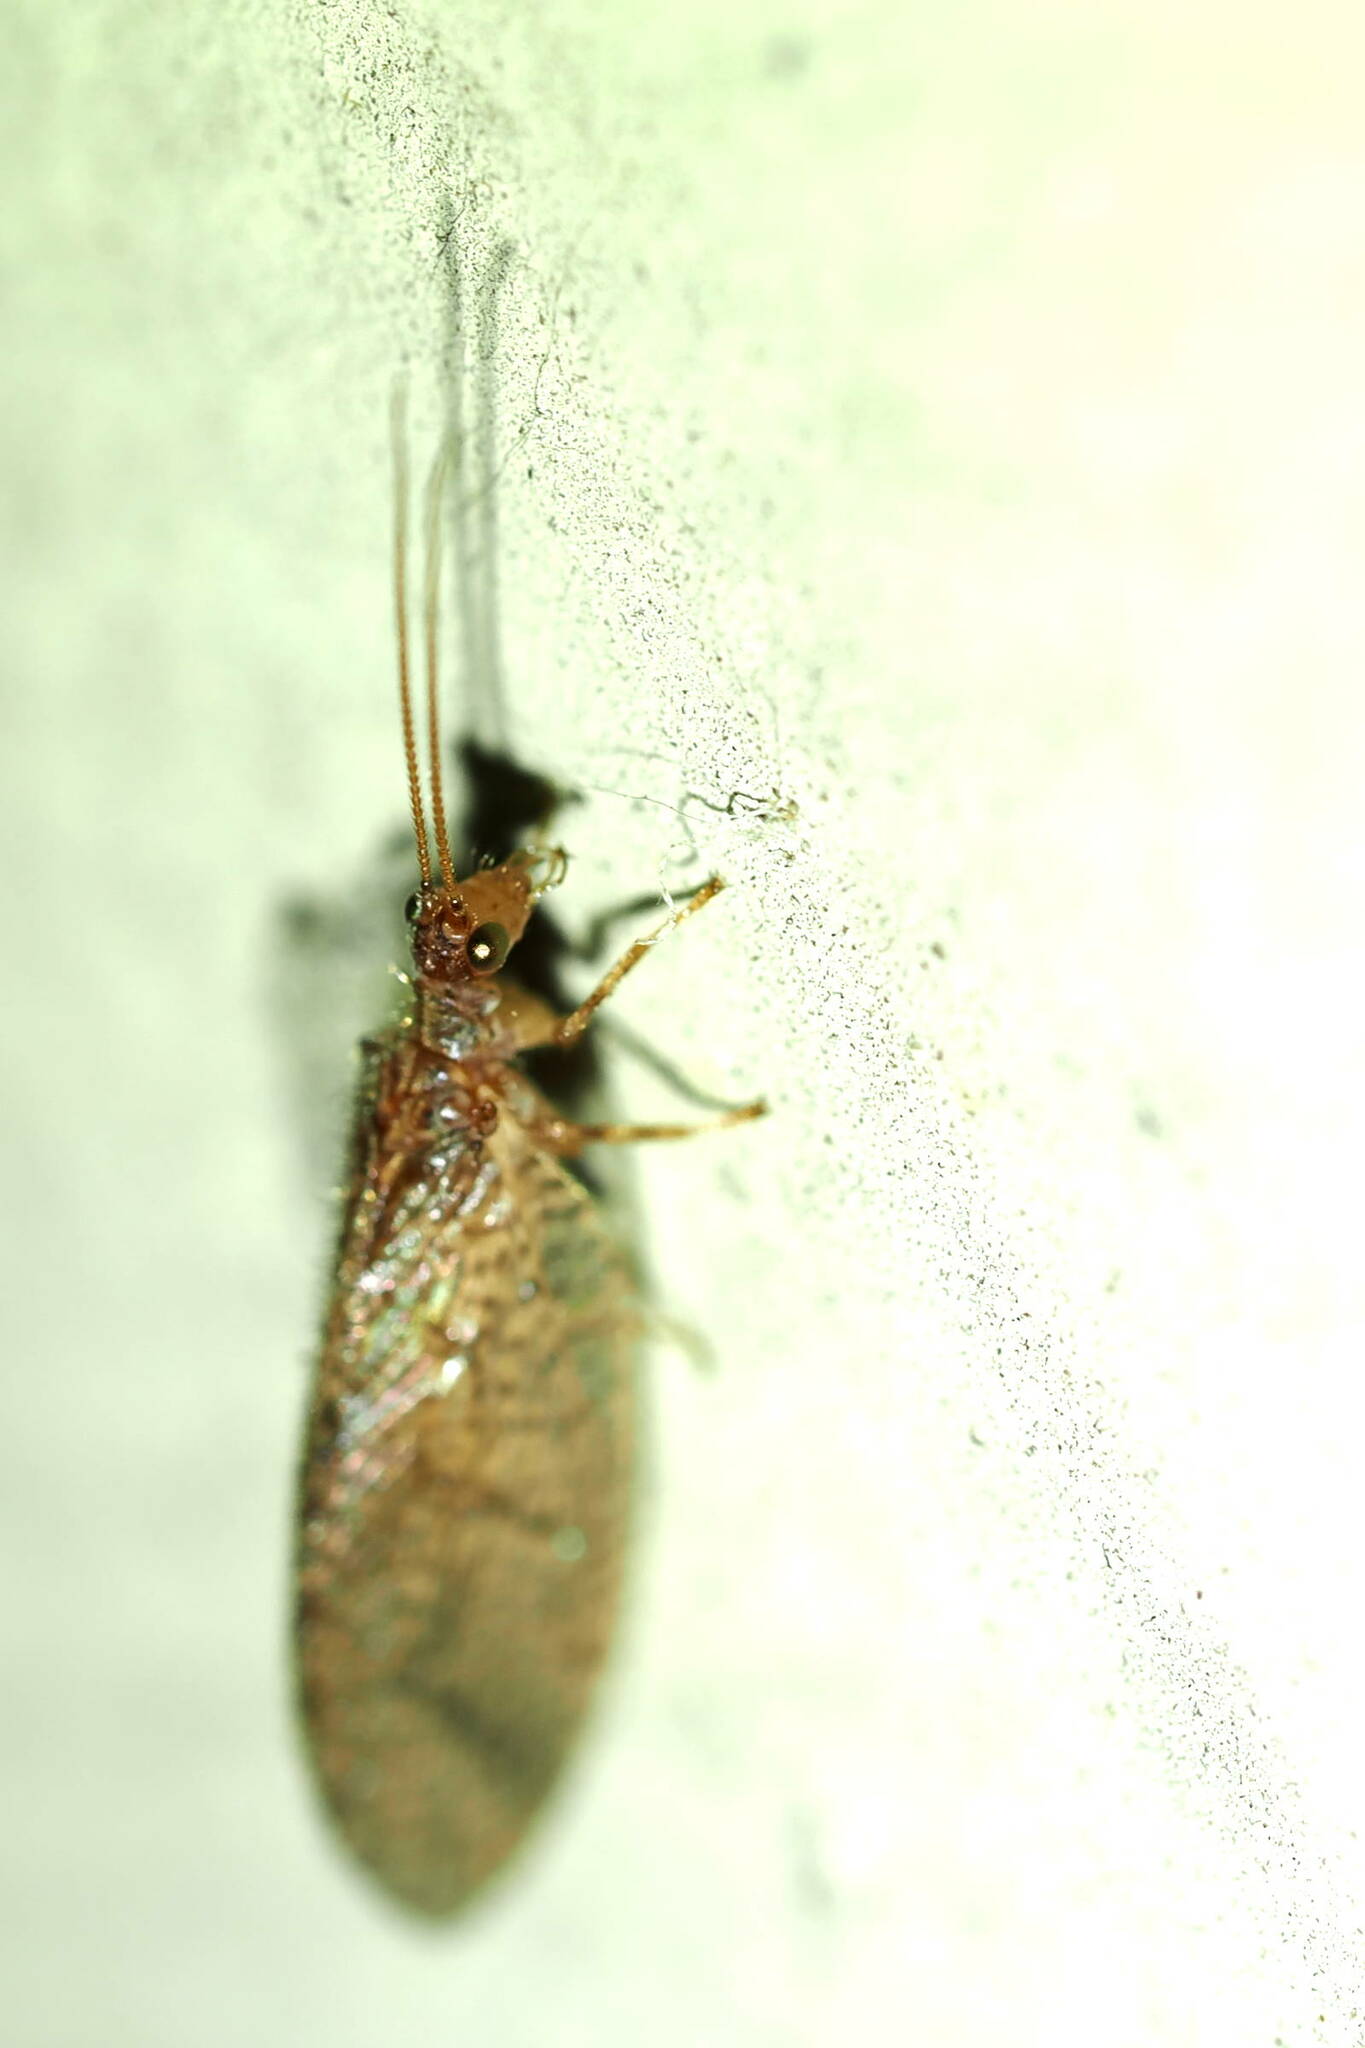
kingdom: Animalia
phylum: Arthropoda
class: Insecta
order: Neuroptera
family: Hemerobiidae
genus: Micromus
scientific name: Micromus posticus
